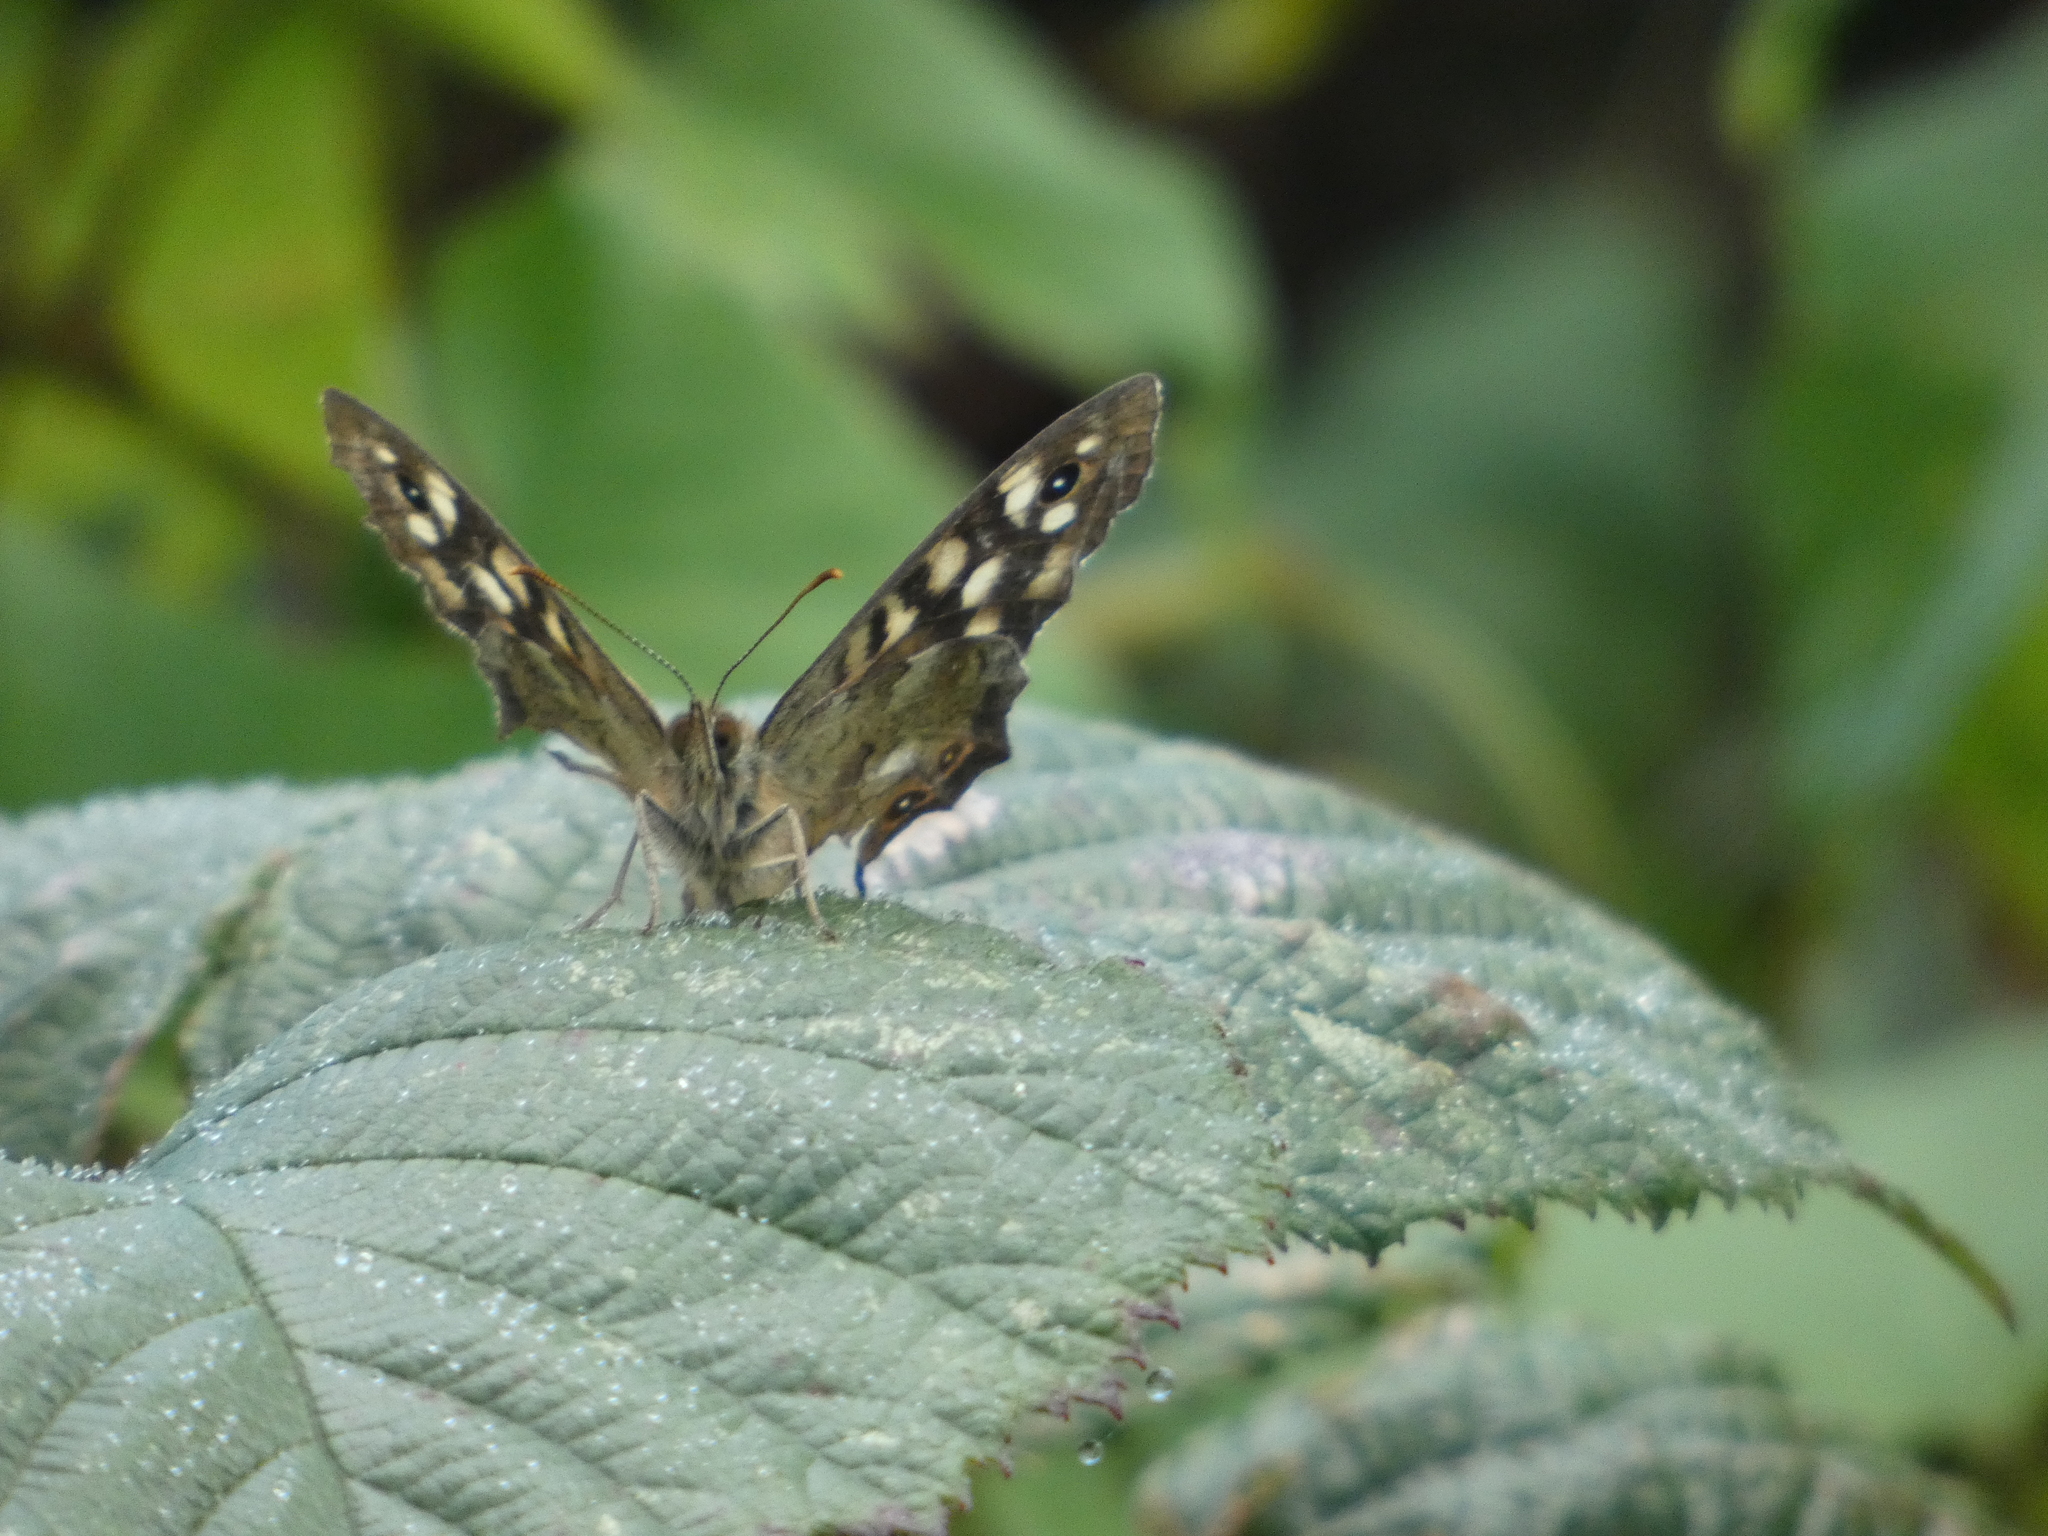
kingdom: Animalia
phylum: Arthropoda
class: Insecta
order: Lepidoptera
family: Nymphalidae
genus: Pararge
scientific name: Pararge aegeria
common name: Speckled wood
